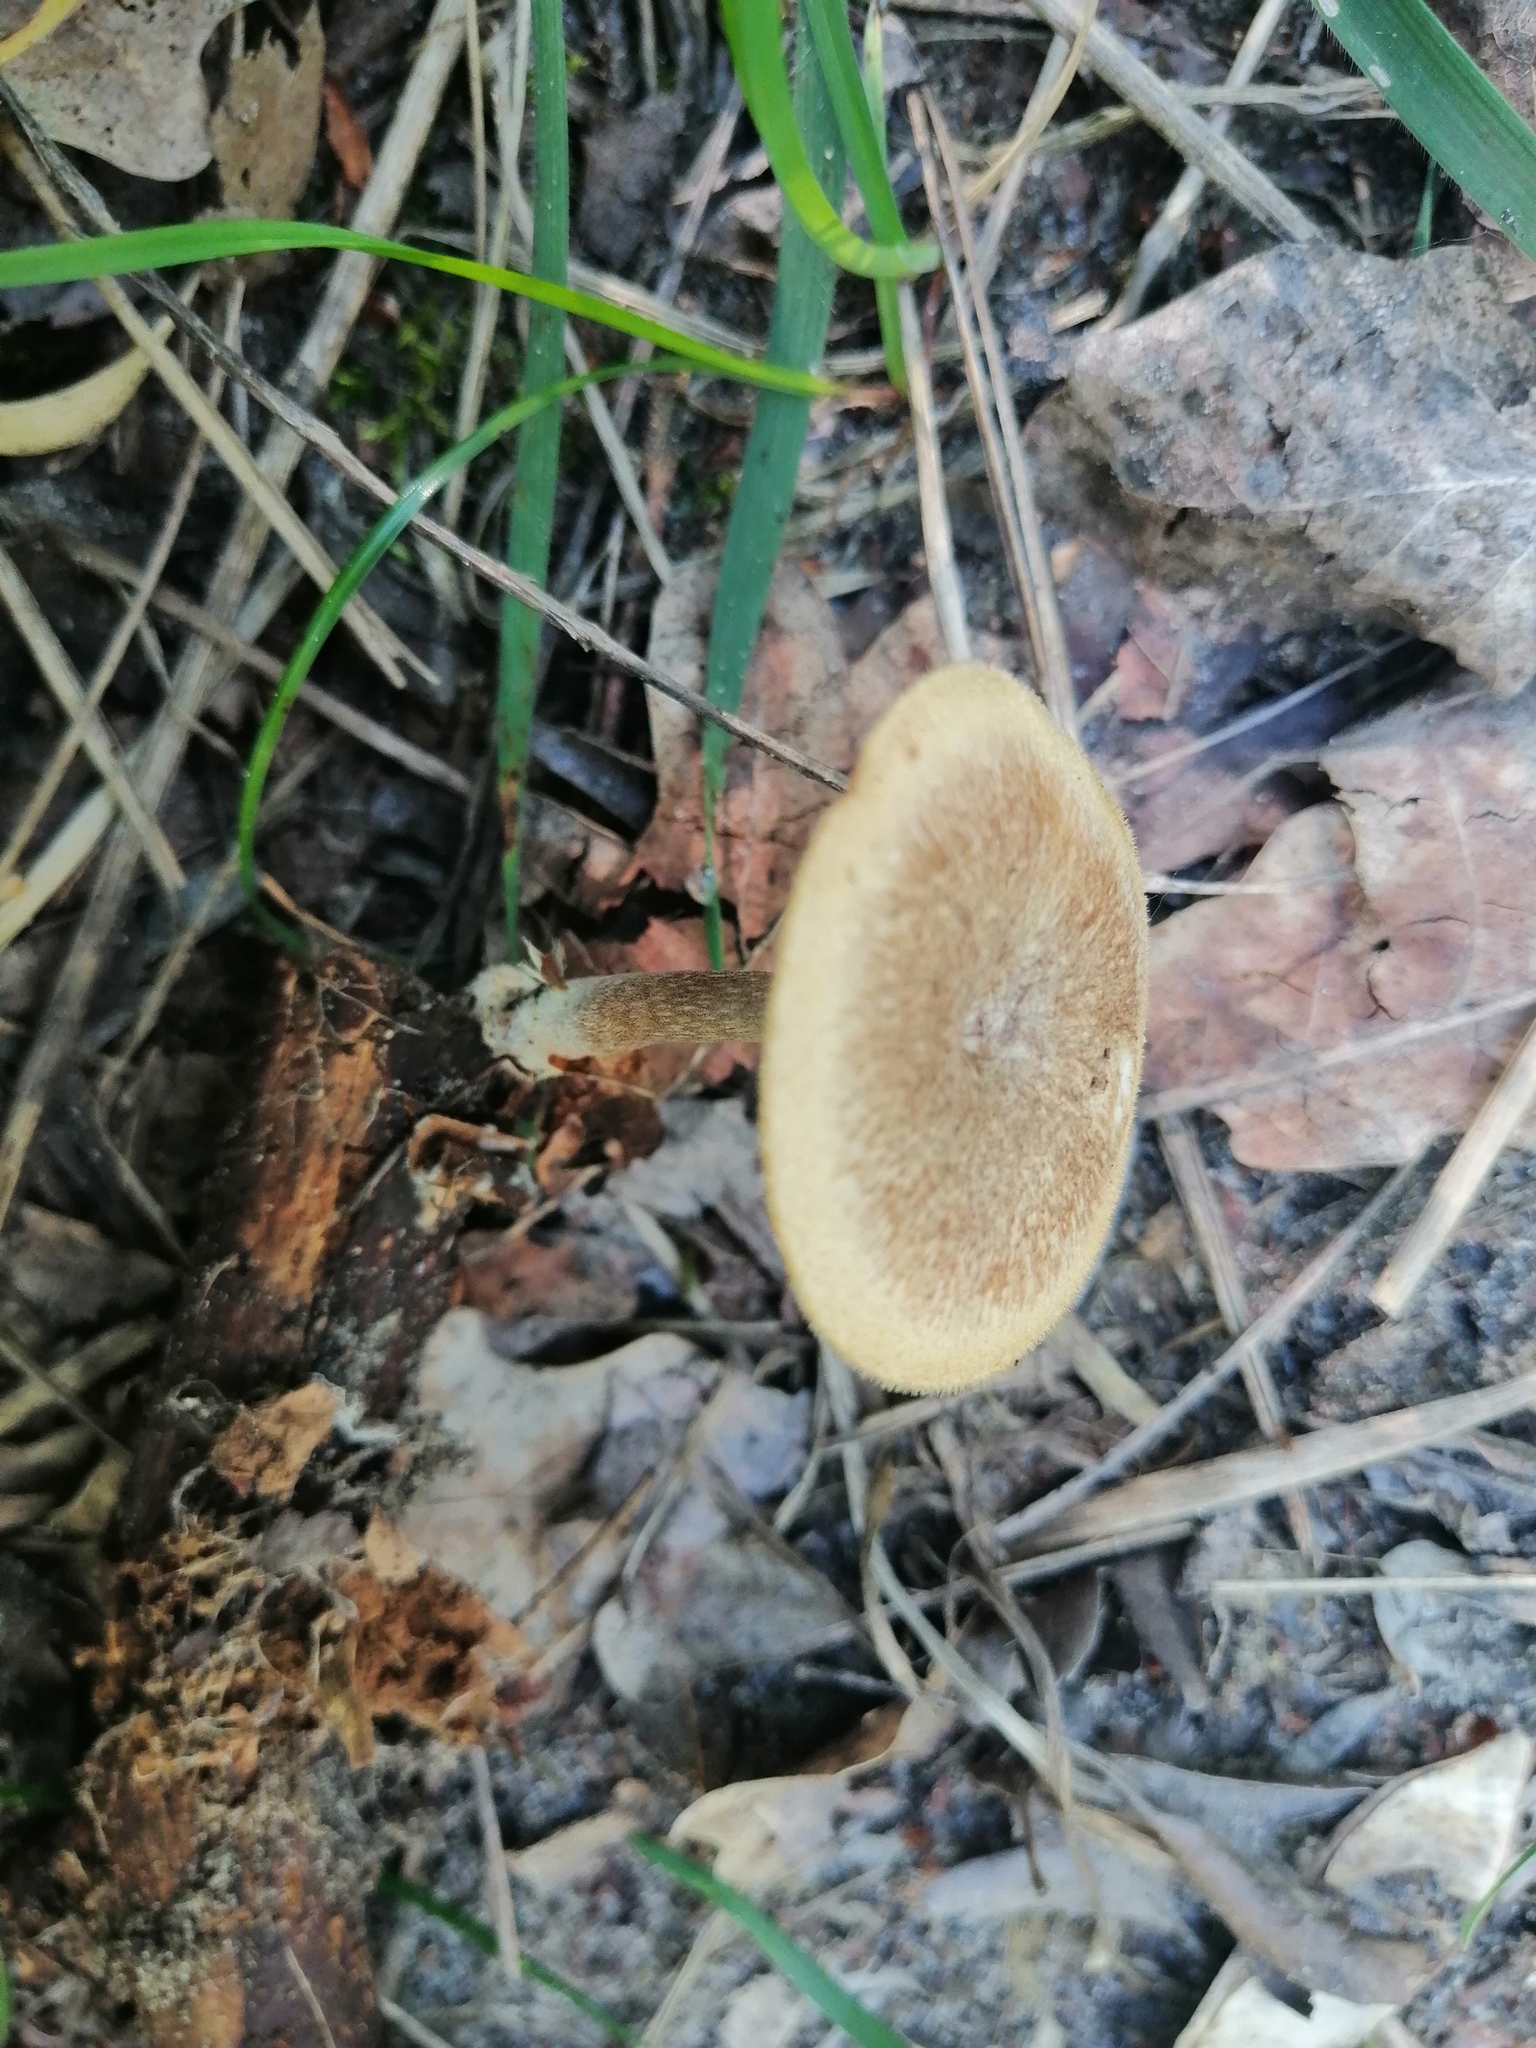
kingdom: Fungi
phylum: Basidiomycota
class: Agaricomycetes
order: Polyporales
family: Polyporaceae
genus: Lentinus
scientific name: Lentinus arcularius
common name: Spring polypore
